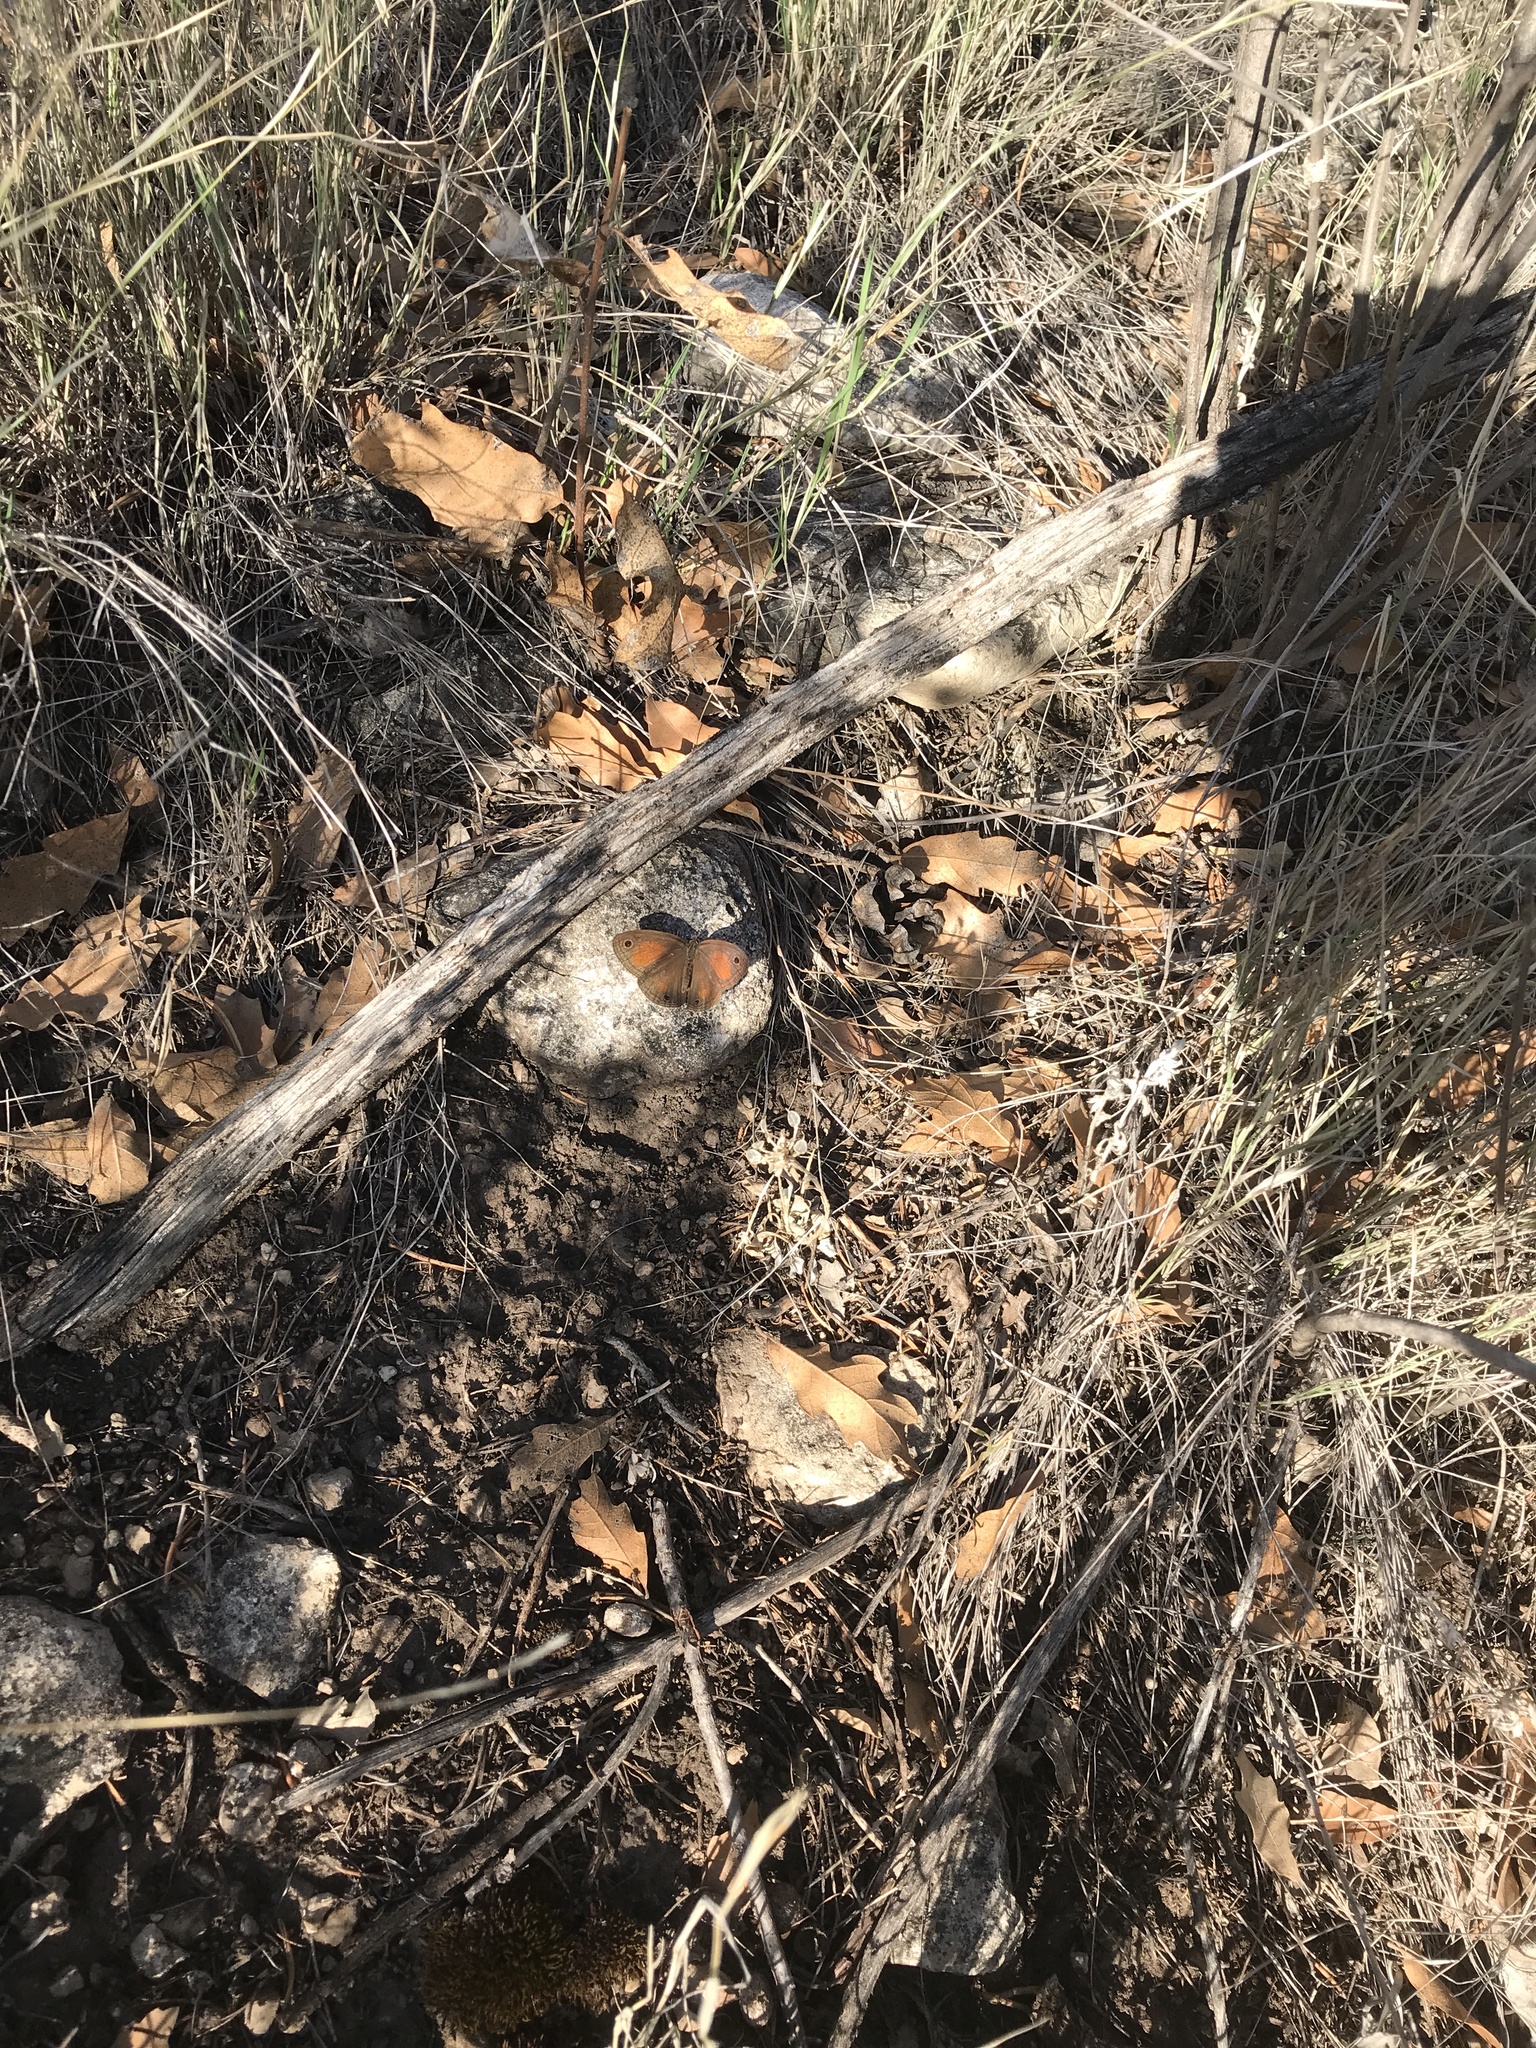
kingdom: Animalia
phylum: Arthropoda
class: Insecta
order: Lepidoptera
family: Nymphalidae
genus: Euptychia
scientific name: Euptychia Cissia rubricata
